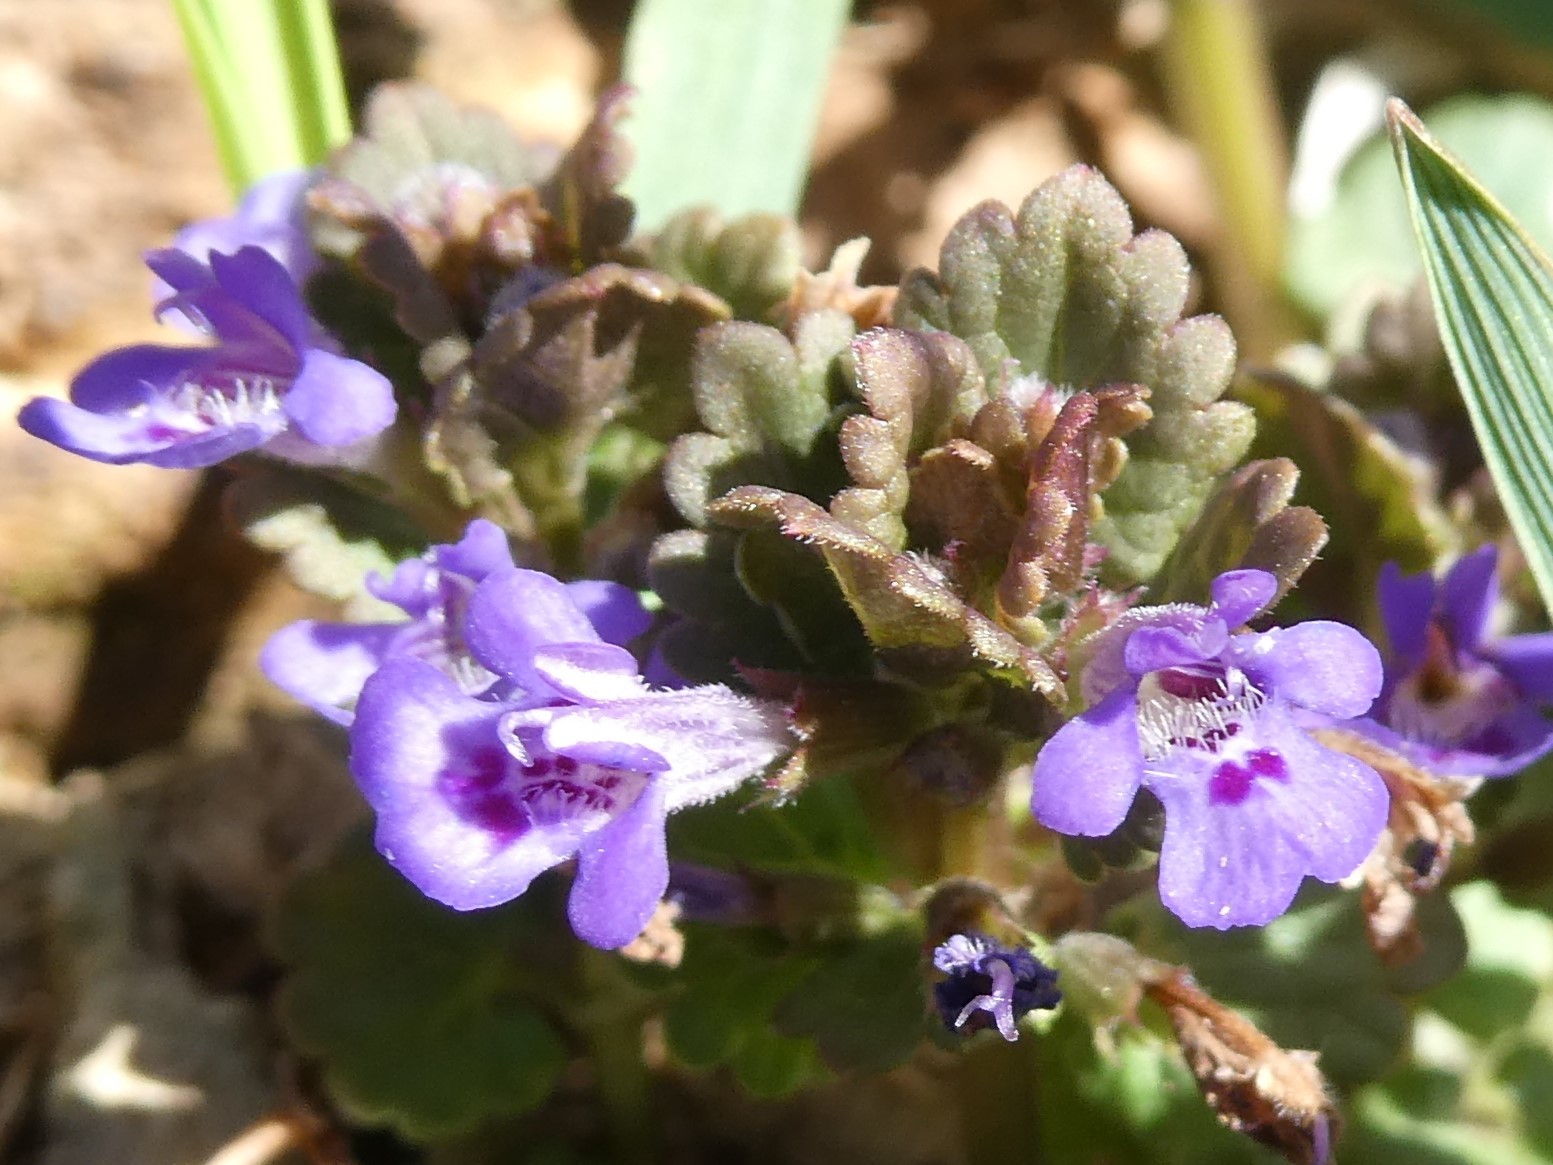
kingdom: Plantae
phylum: Tracheophyta
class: Magnoliopsida
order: Lamiales
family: Lamiaceae
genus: Glechoma
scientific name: Glechoma hederacea
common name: Ground ivy
